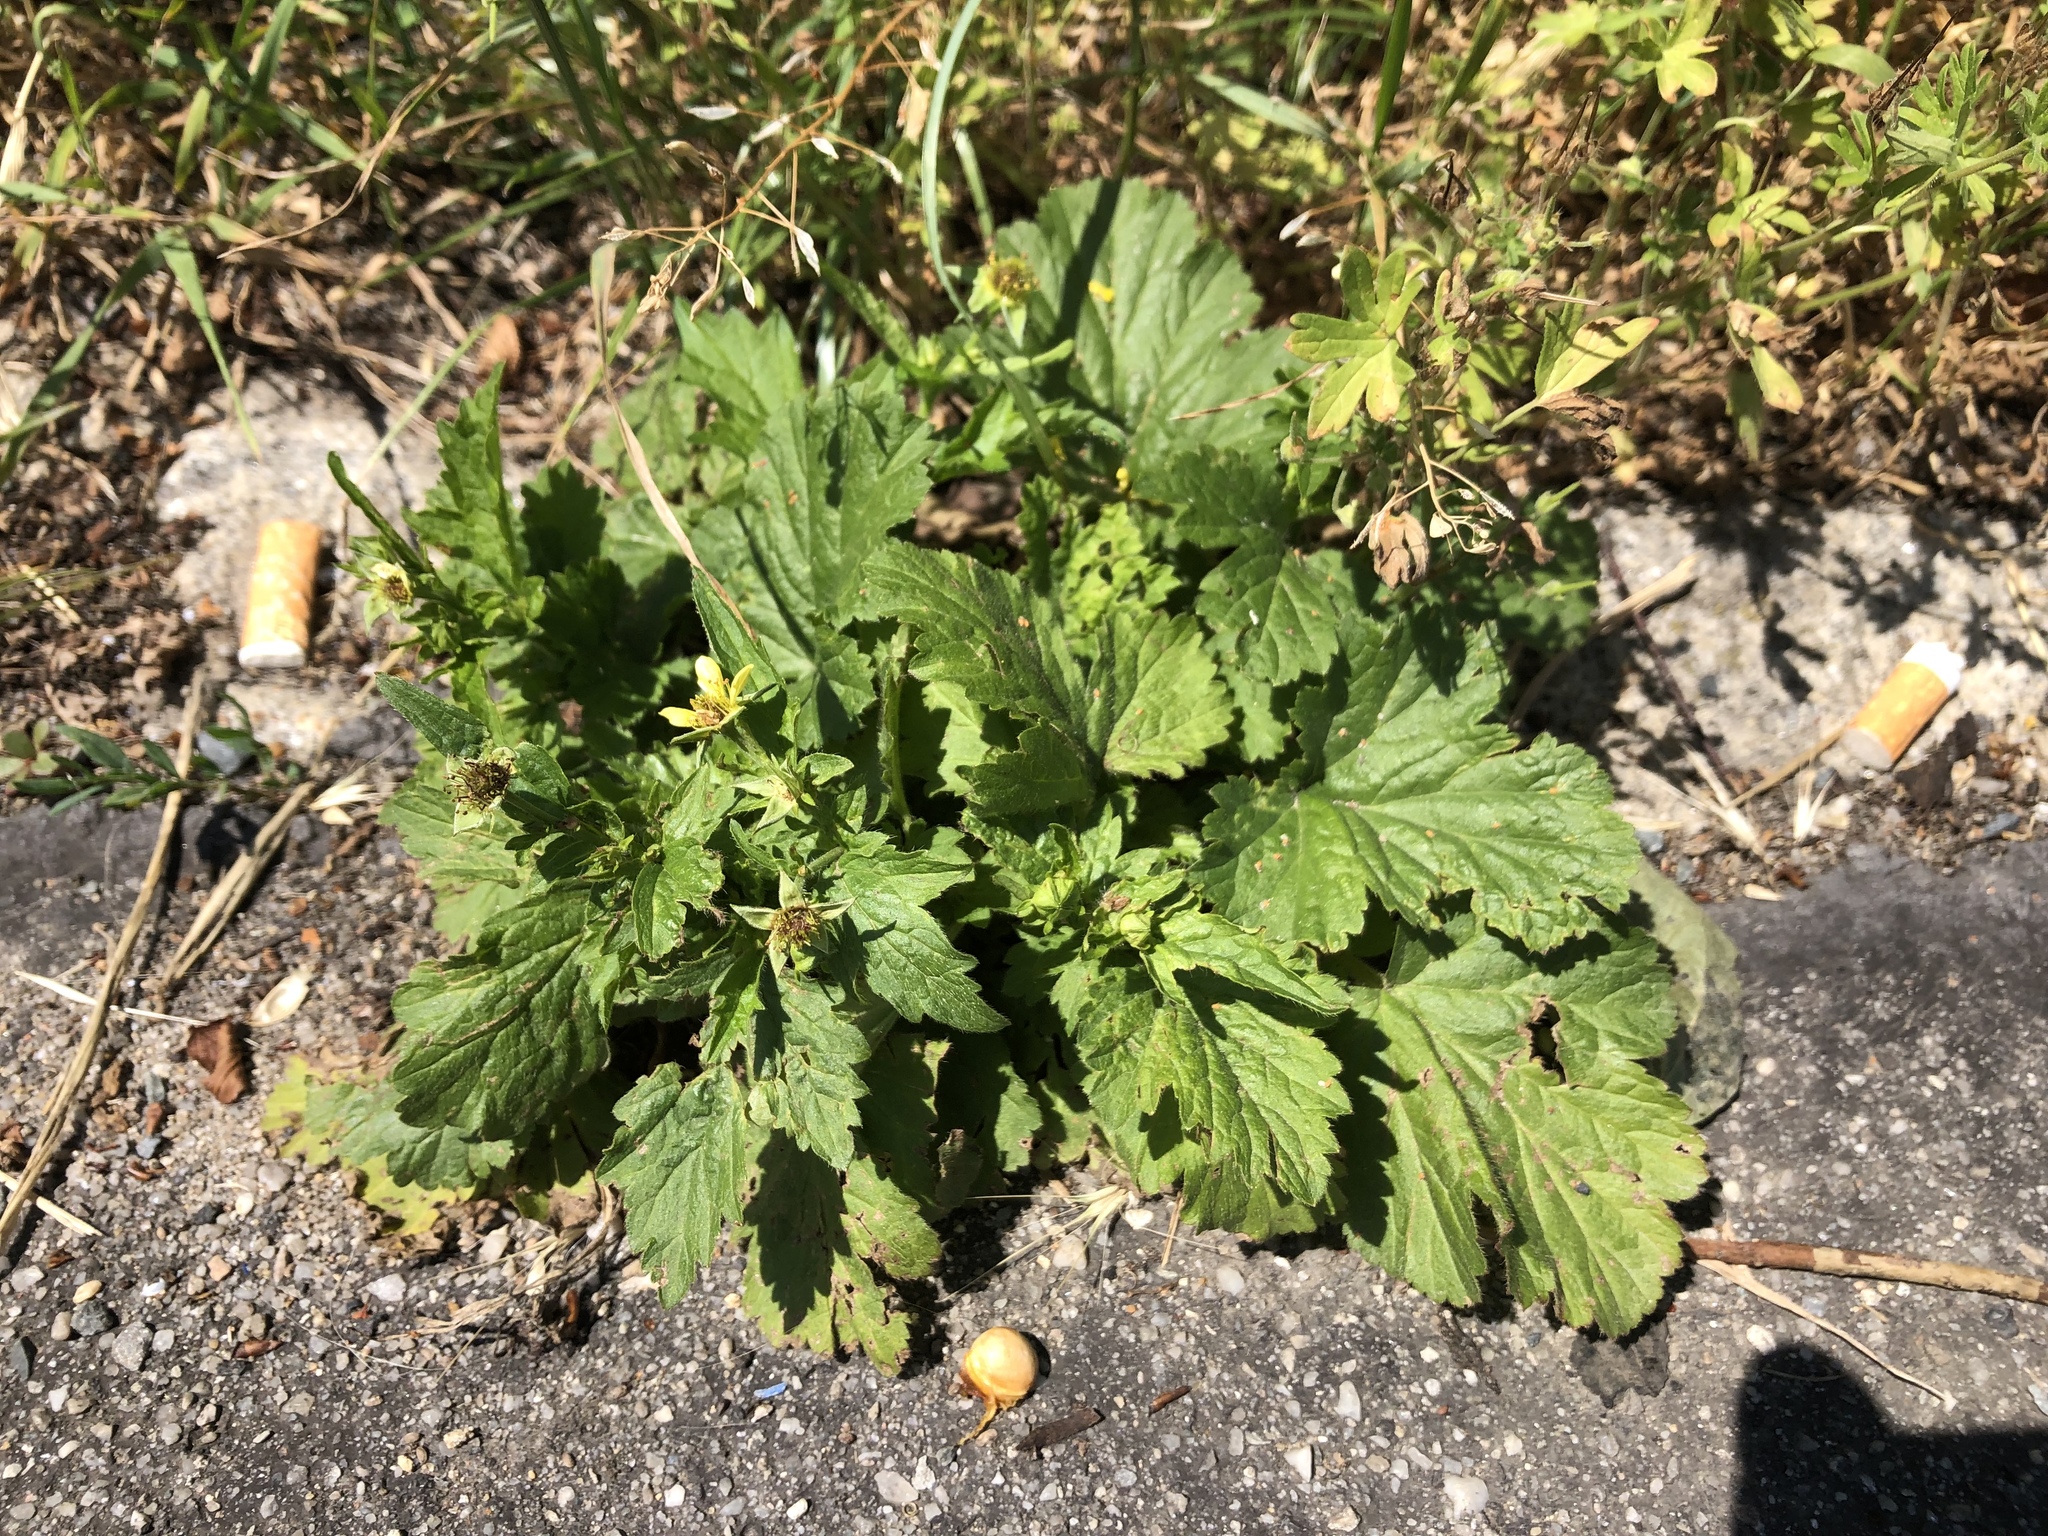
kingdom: Plantae
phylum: Tracheophyta
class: Magnoliopsida
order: Rosales
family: Rosaceae
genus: Geum
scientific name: Geum urbanum
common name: Wood avens
